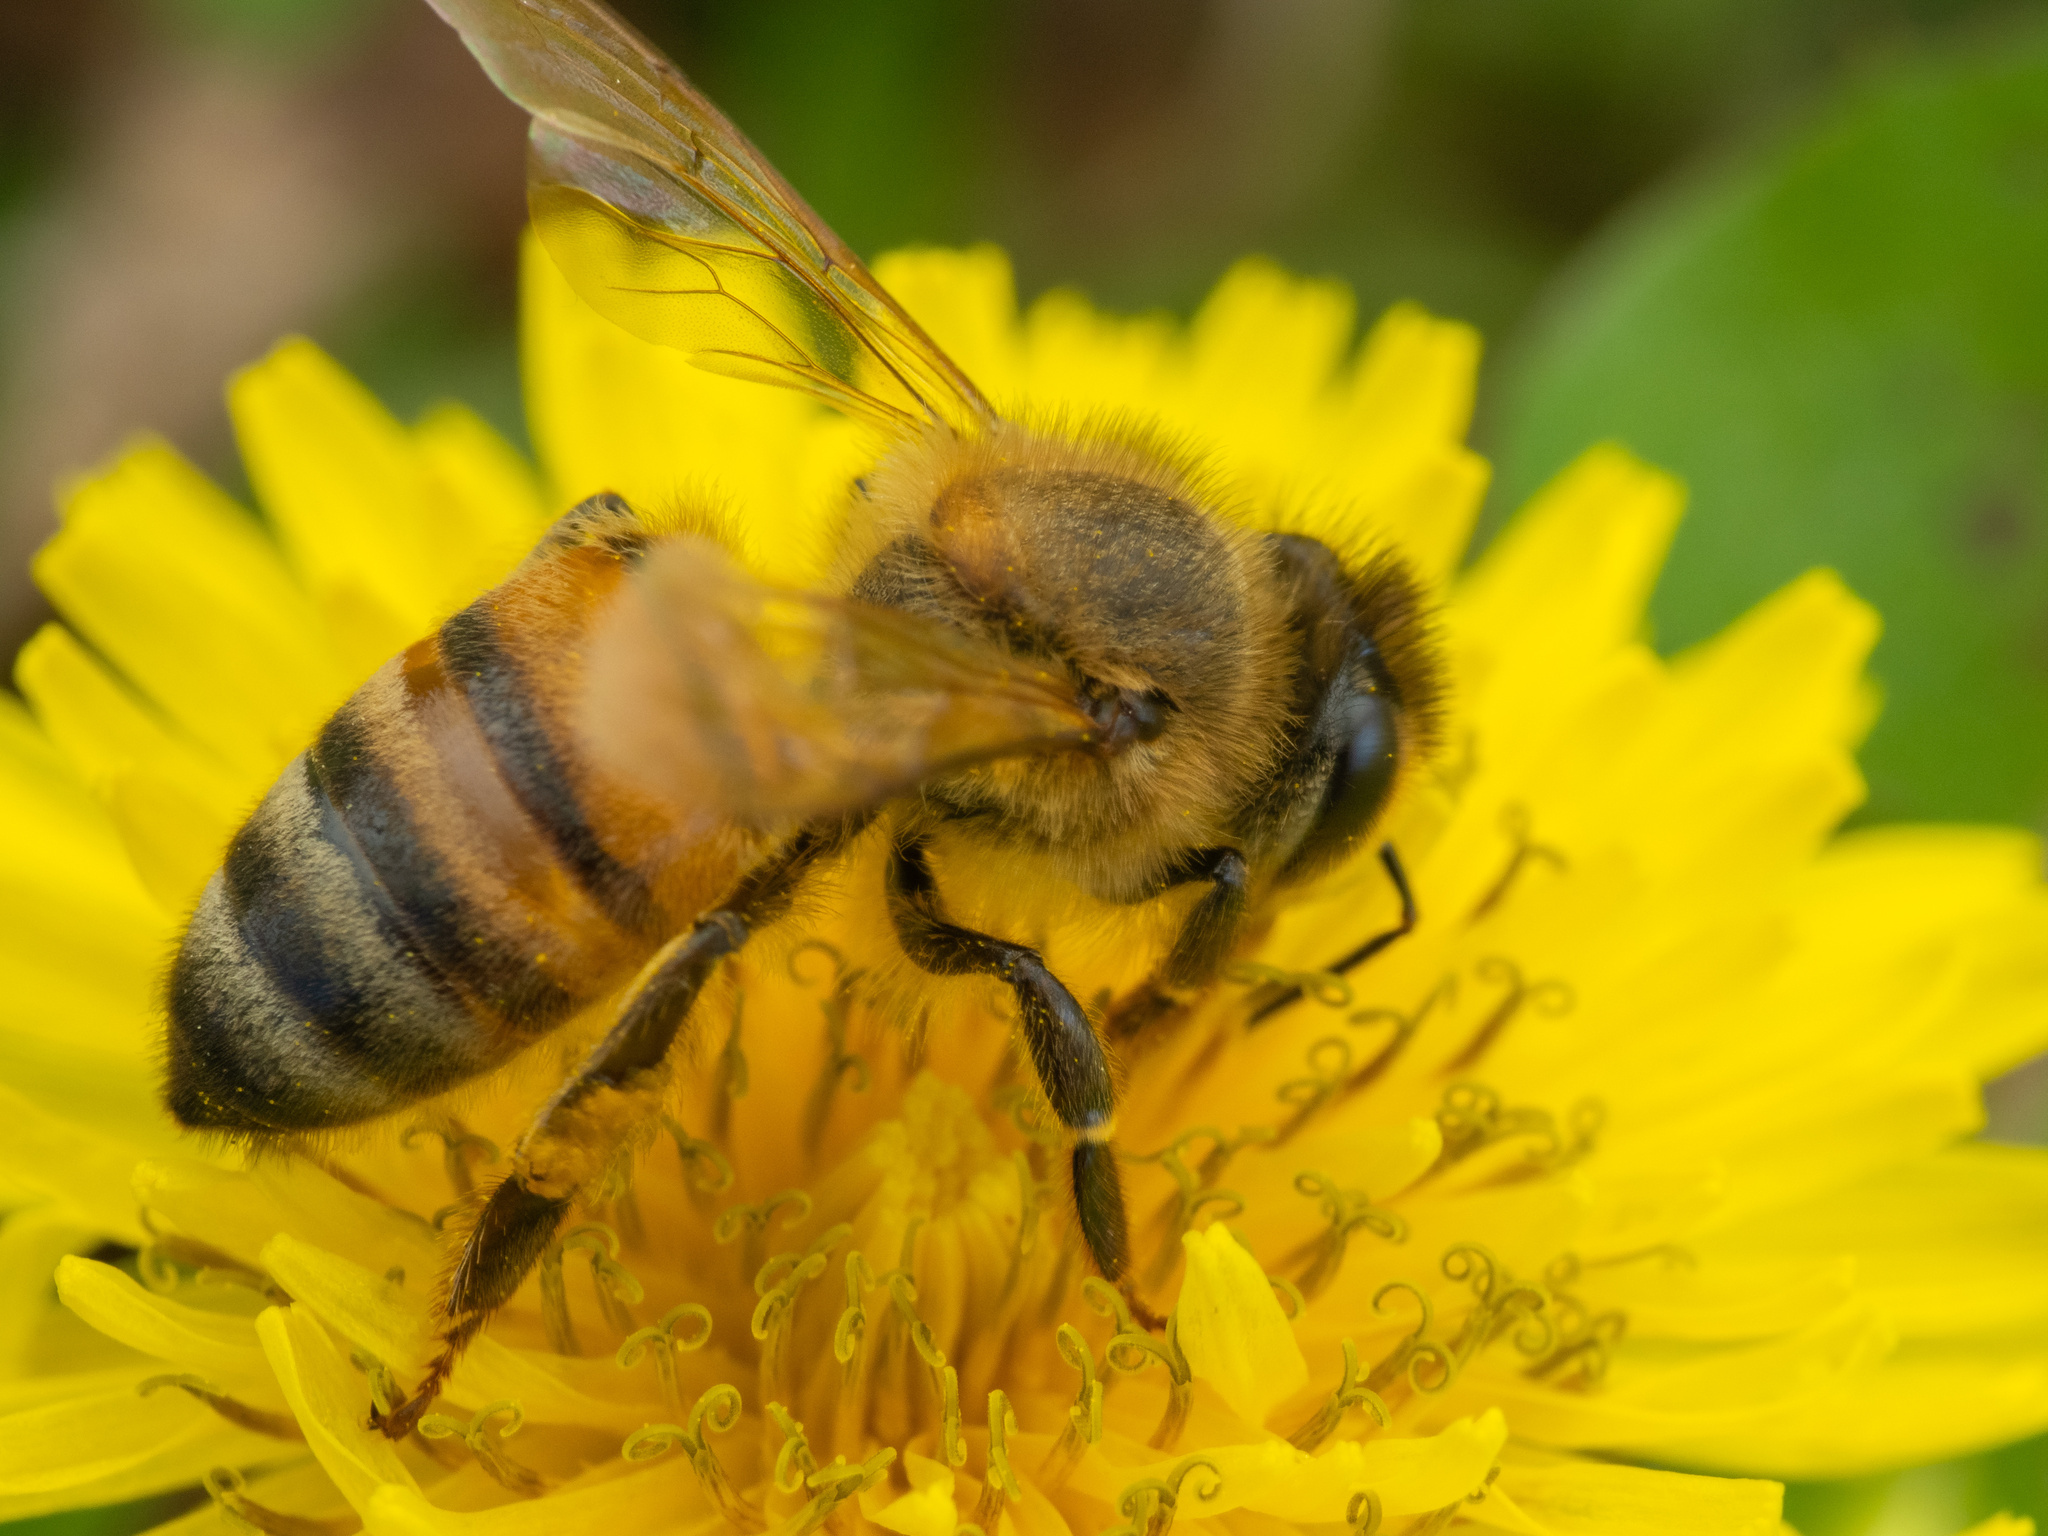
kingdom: Animalia
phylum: Arthropoda
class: Insecta
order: Hymenoptera
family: Apidae
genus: Apis
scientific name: Apis mellifera
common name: Honey bee
